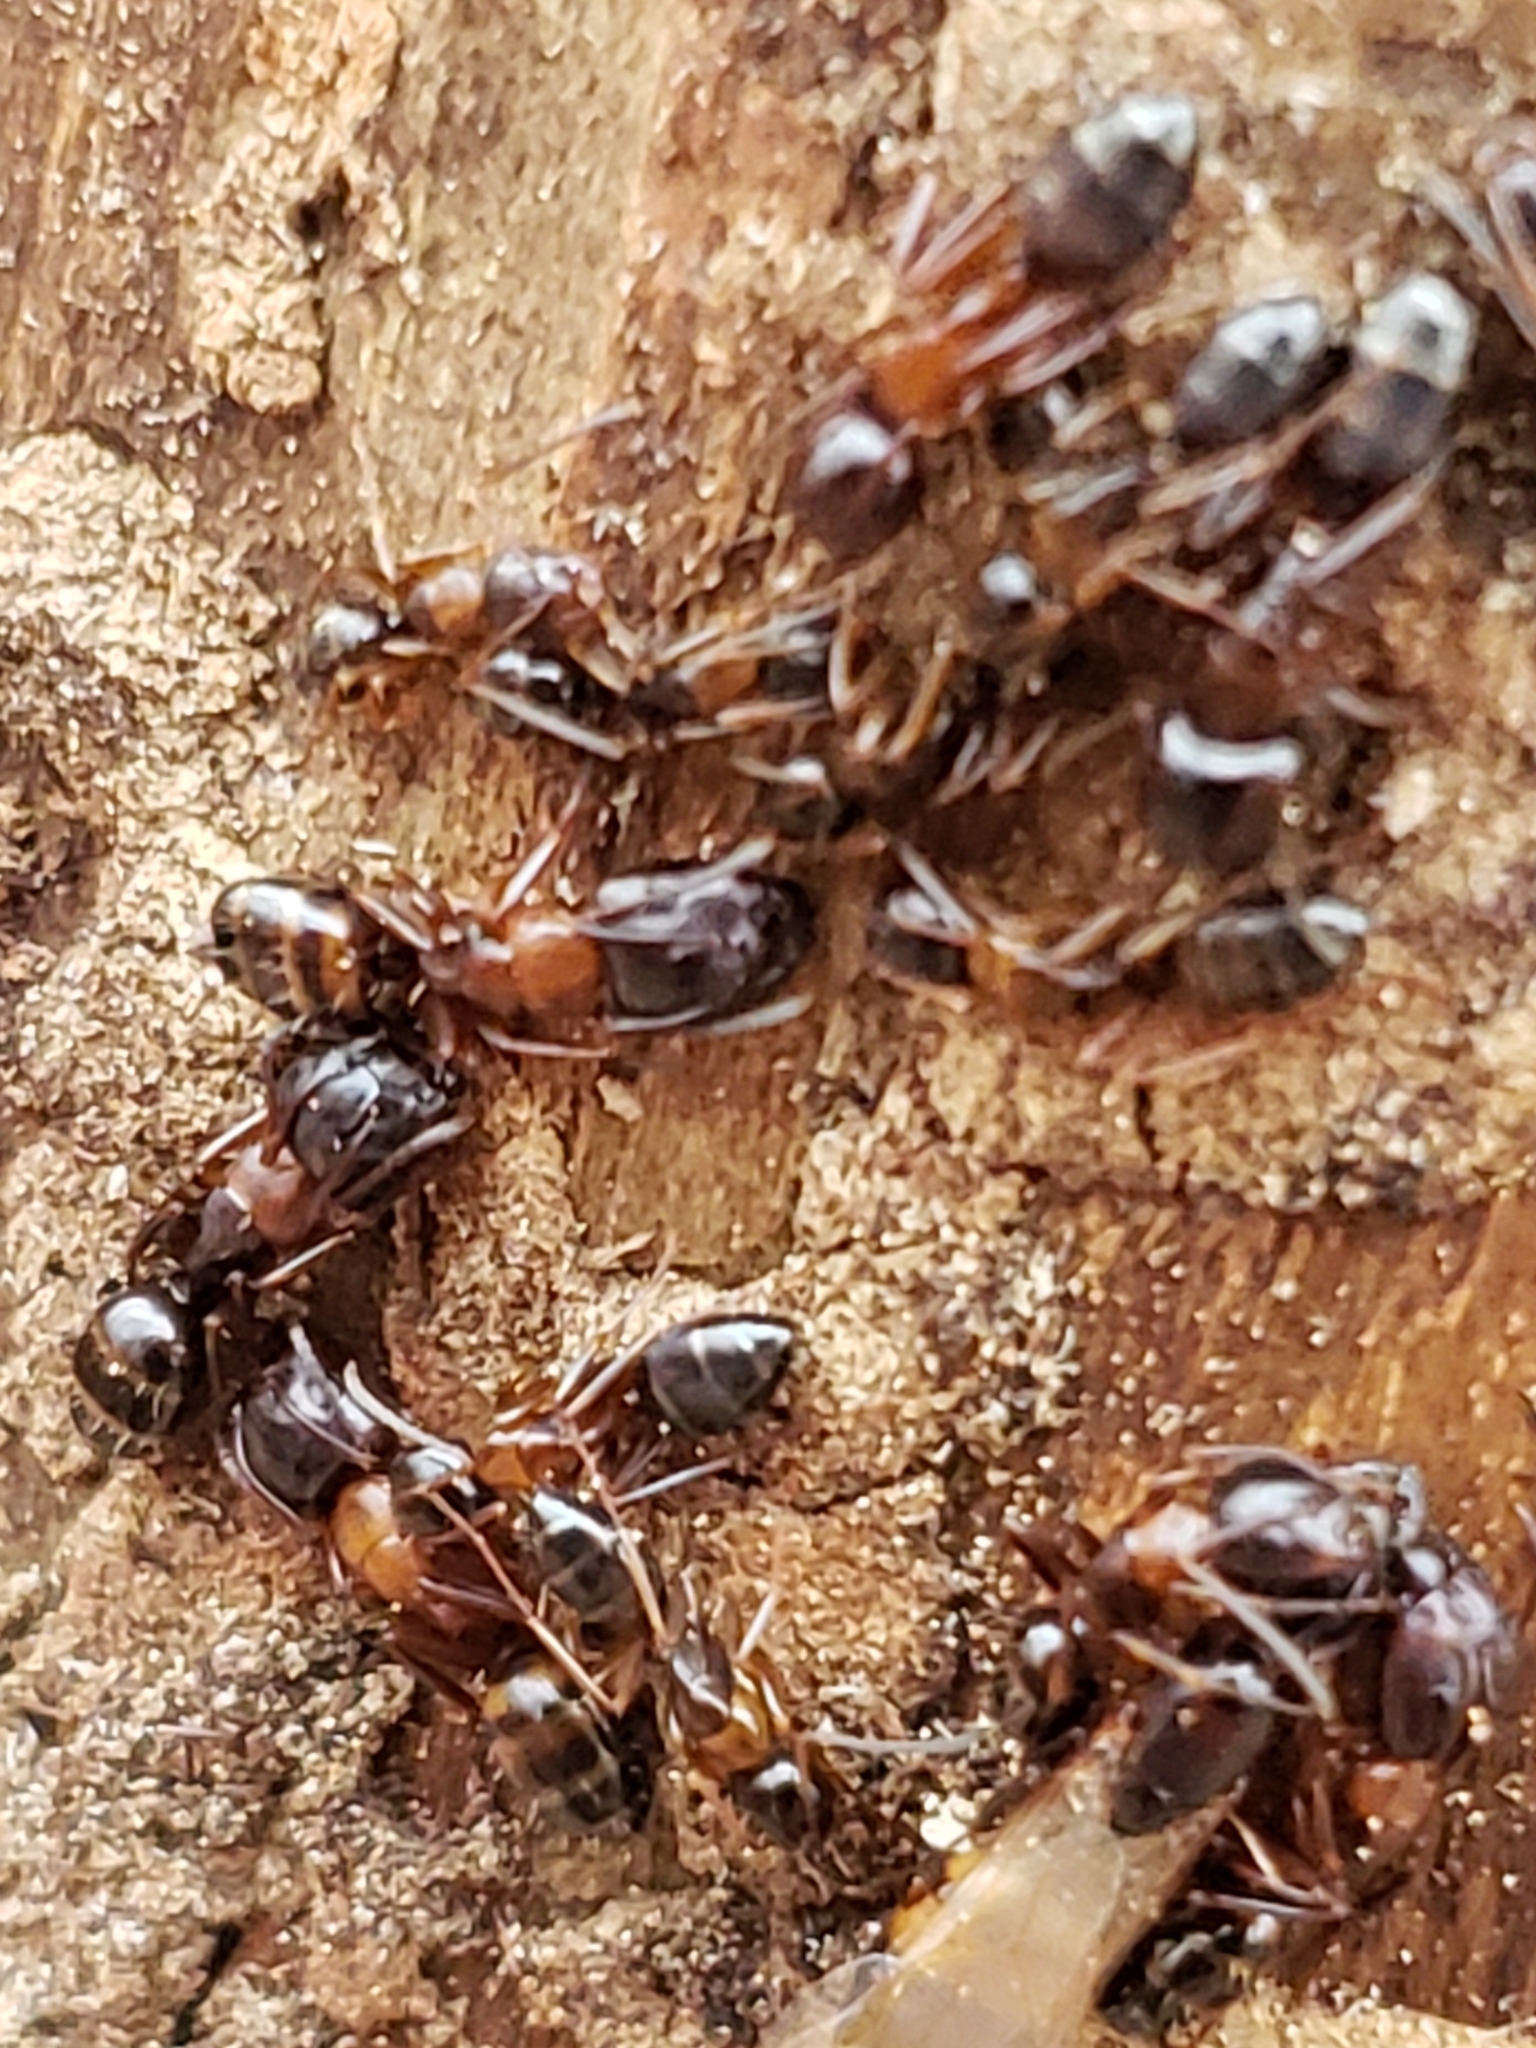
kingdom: Animalia
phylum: Arthropoda
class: Insecta
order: Hymenoptera
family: Formicidae
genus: Camponotus
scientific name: Camponotus nearcticus
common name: Smaller carpenter ant
